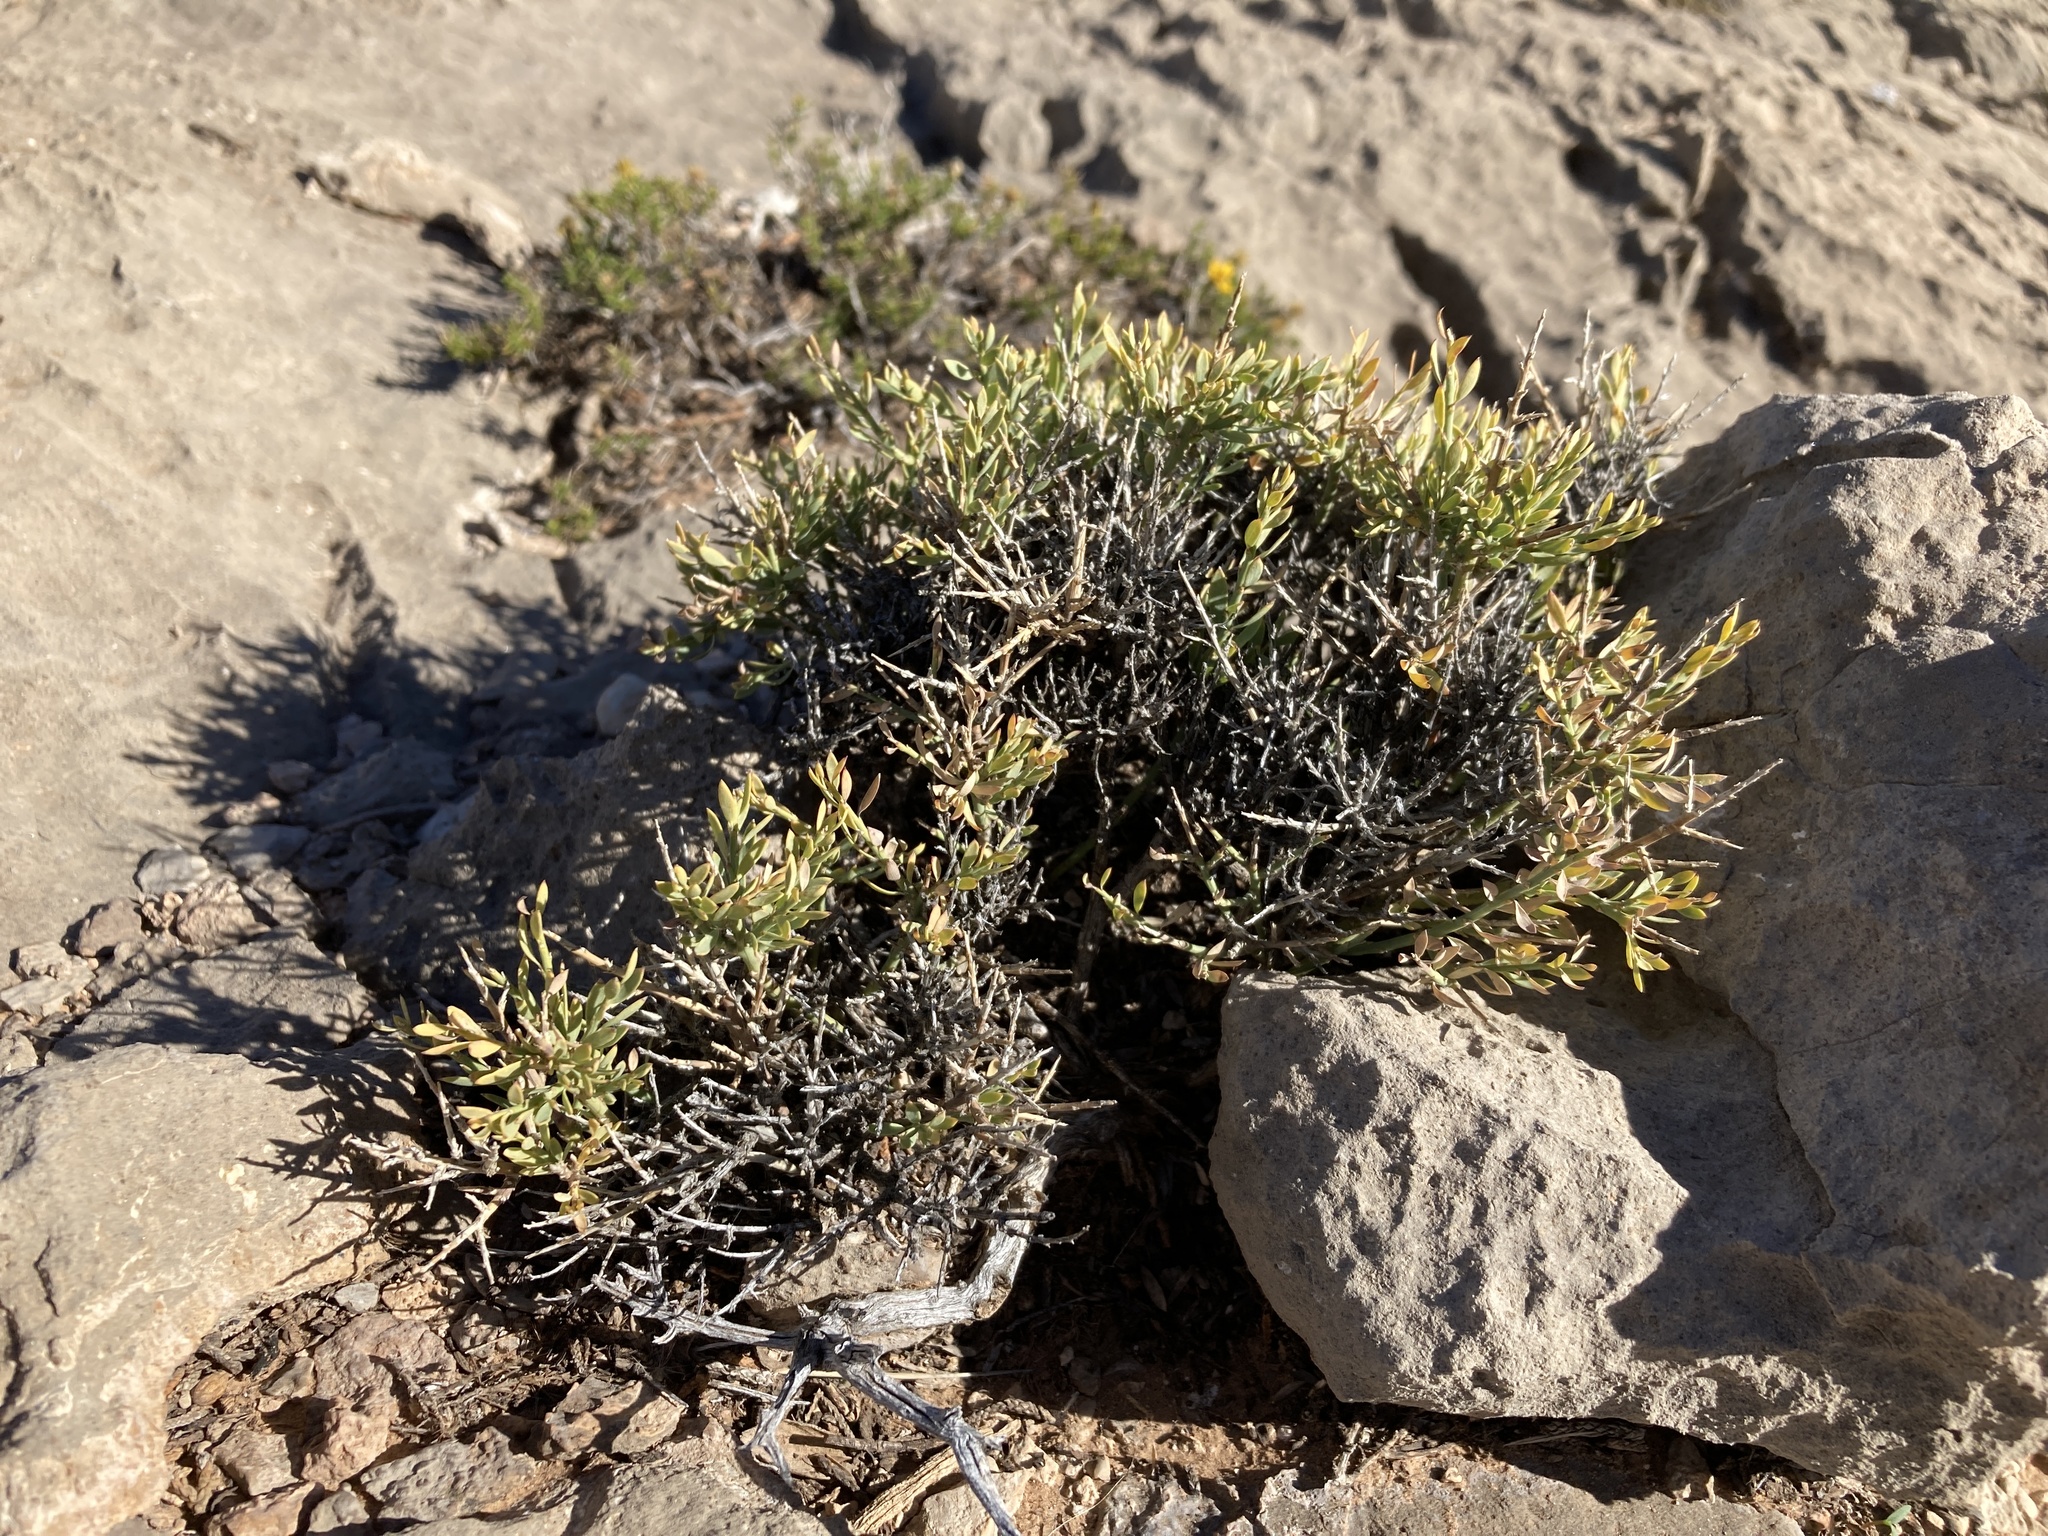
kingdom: Plantae
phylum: Tracheophyta
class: Magnoliopsida
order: Crossosomatales
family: Crossosomataceae
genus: Glossopetalon
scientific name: Glossopetalon spinescens
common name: Spring greasebush
